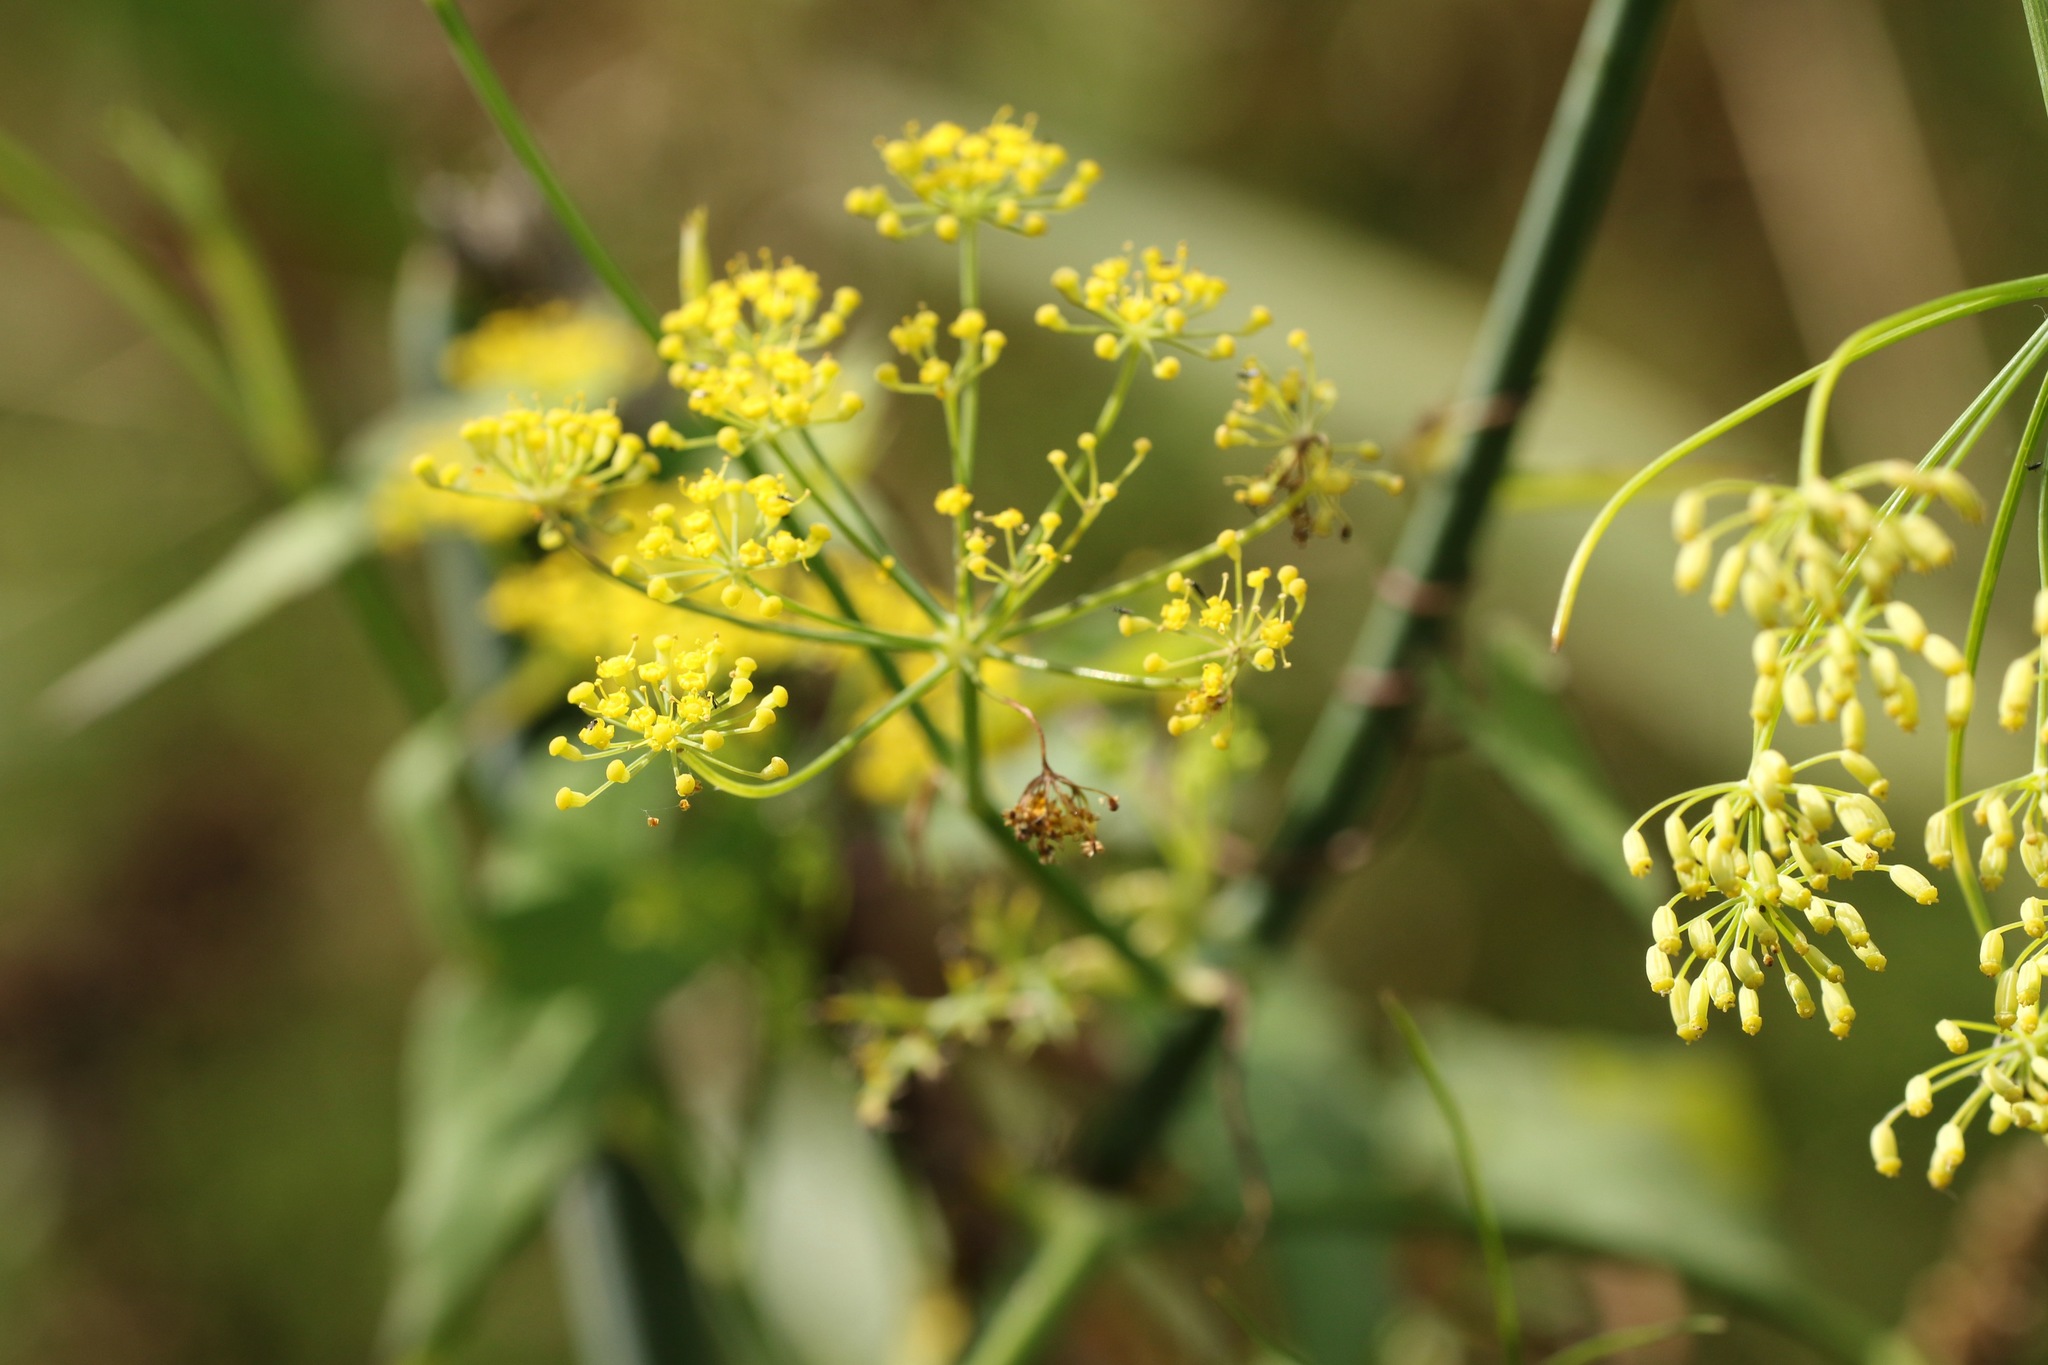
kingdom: Plantae
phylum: Tracheophyta
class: Magnoliopsida
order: Apiales
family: Apiaceae
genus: Foeniculum
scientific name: Foeniculum vulgare
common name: Fennel
